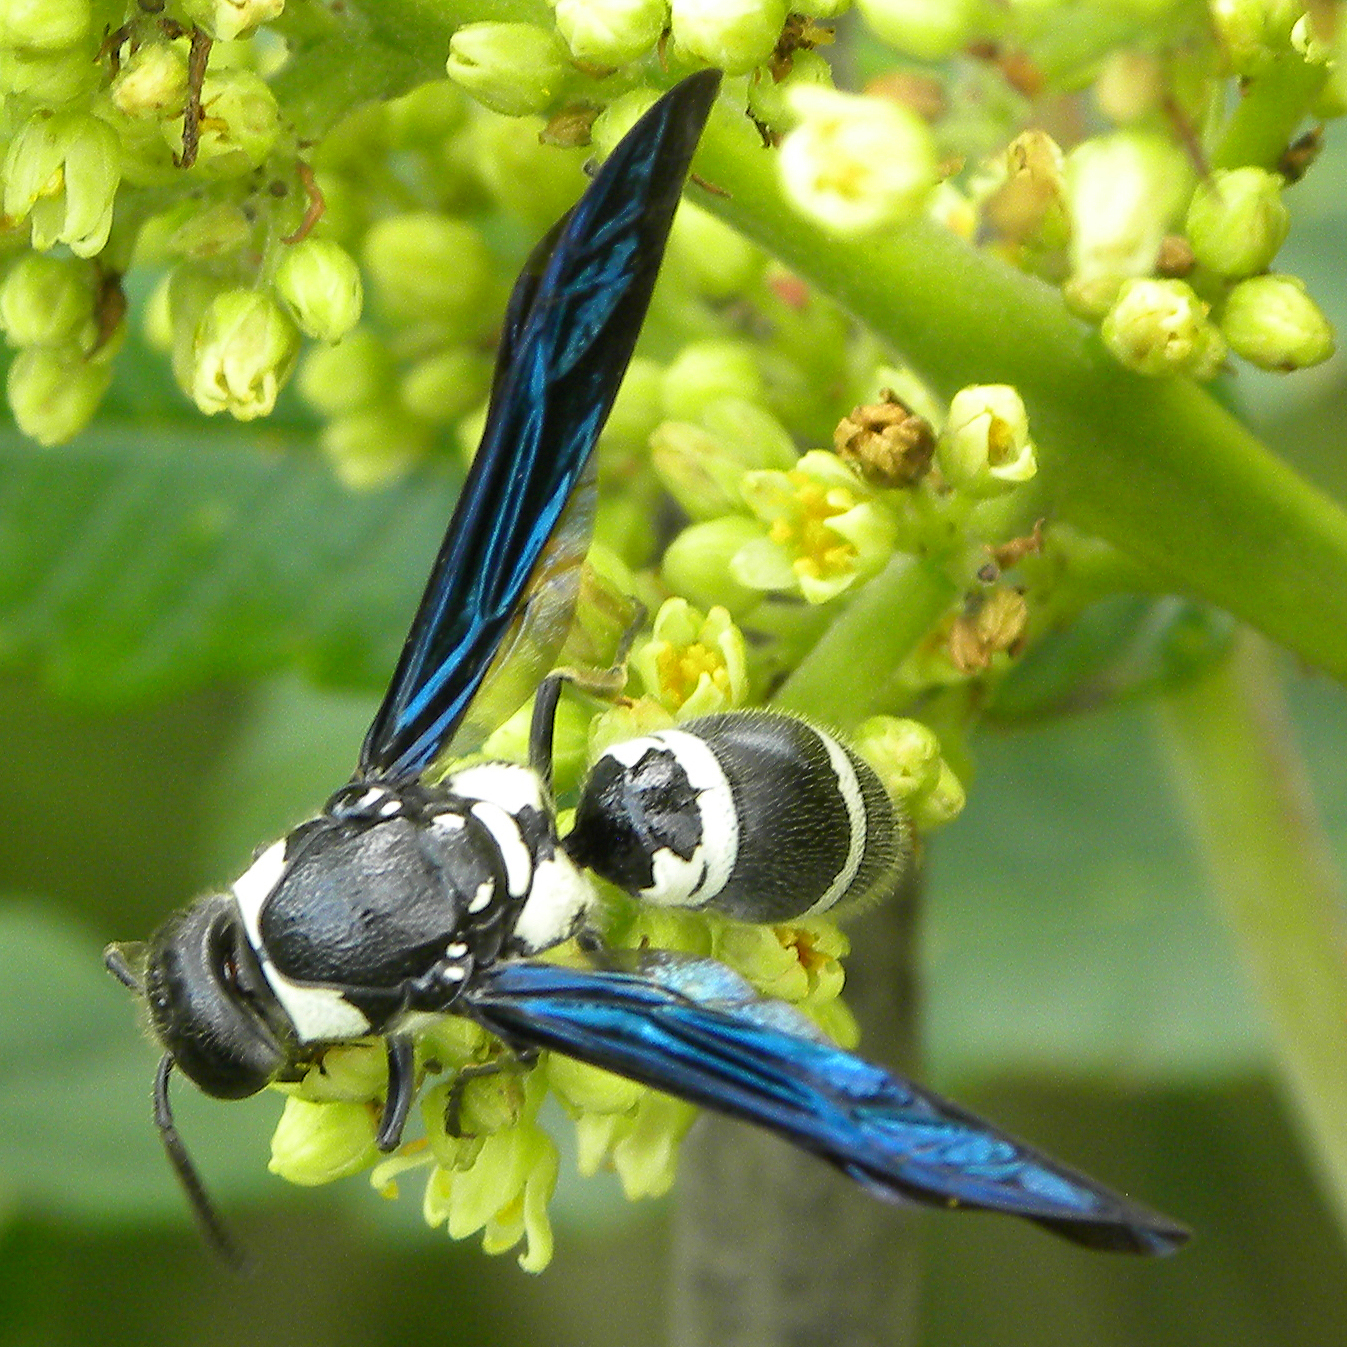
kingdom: Animalia
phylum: Arthropoda
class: Insecta
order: Hymenoptera
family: Eumenidae
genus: Pseudodynerus
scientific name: Pseudodynerus quadrisectus
